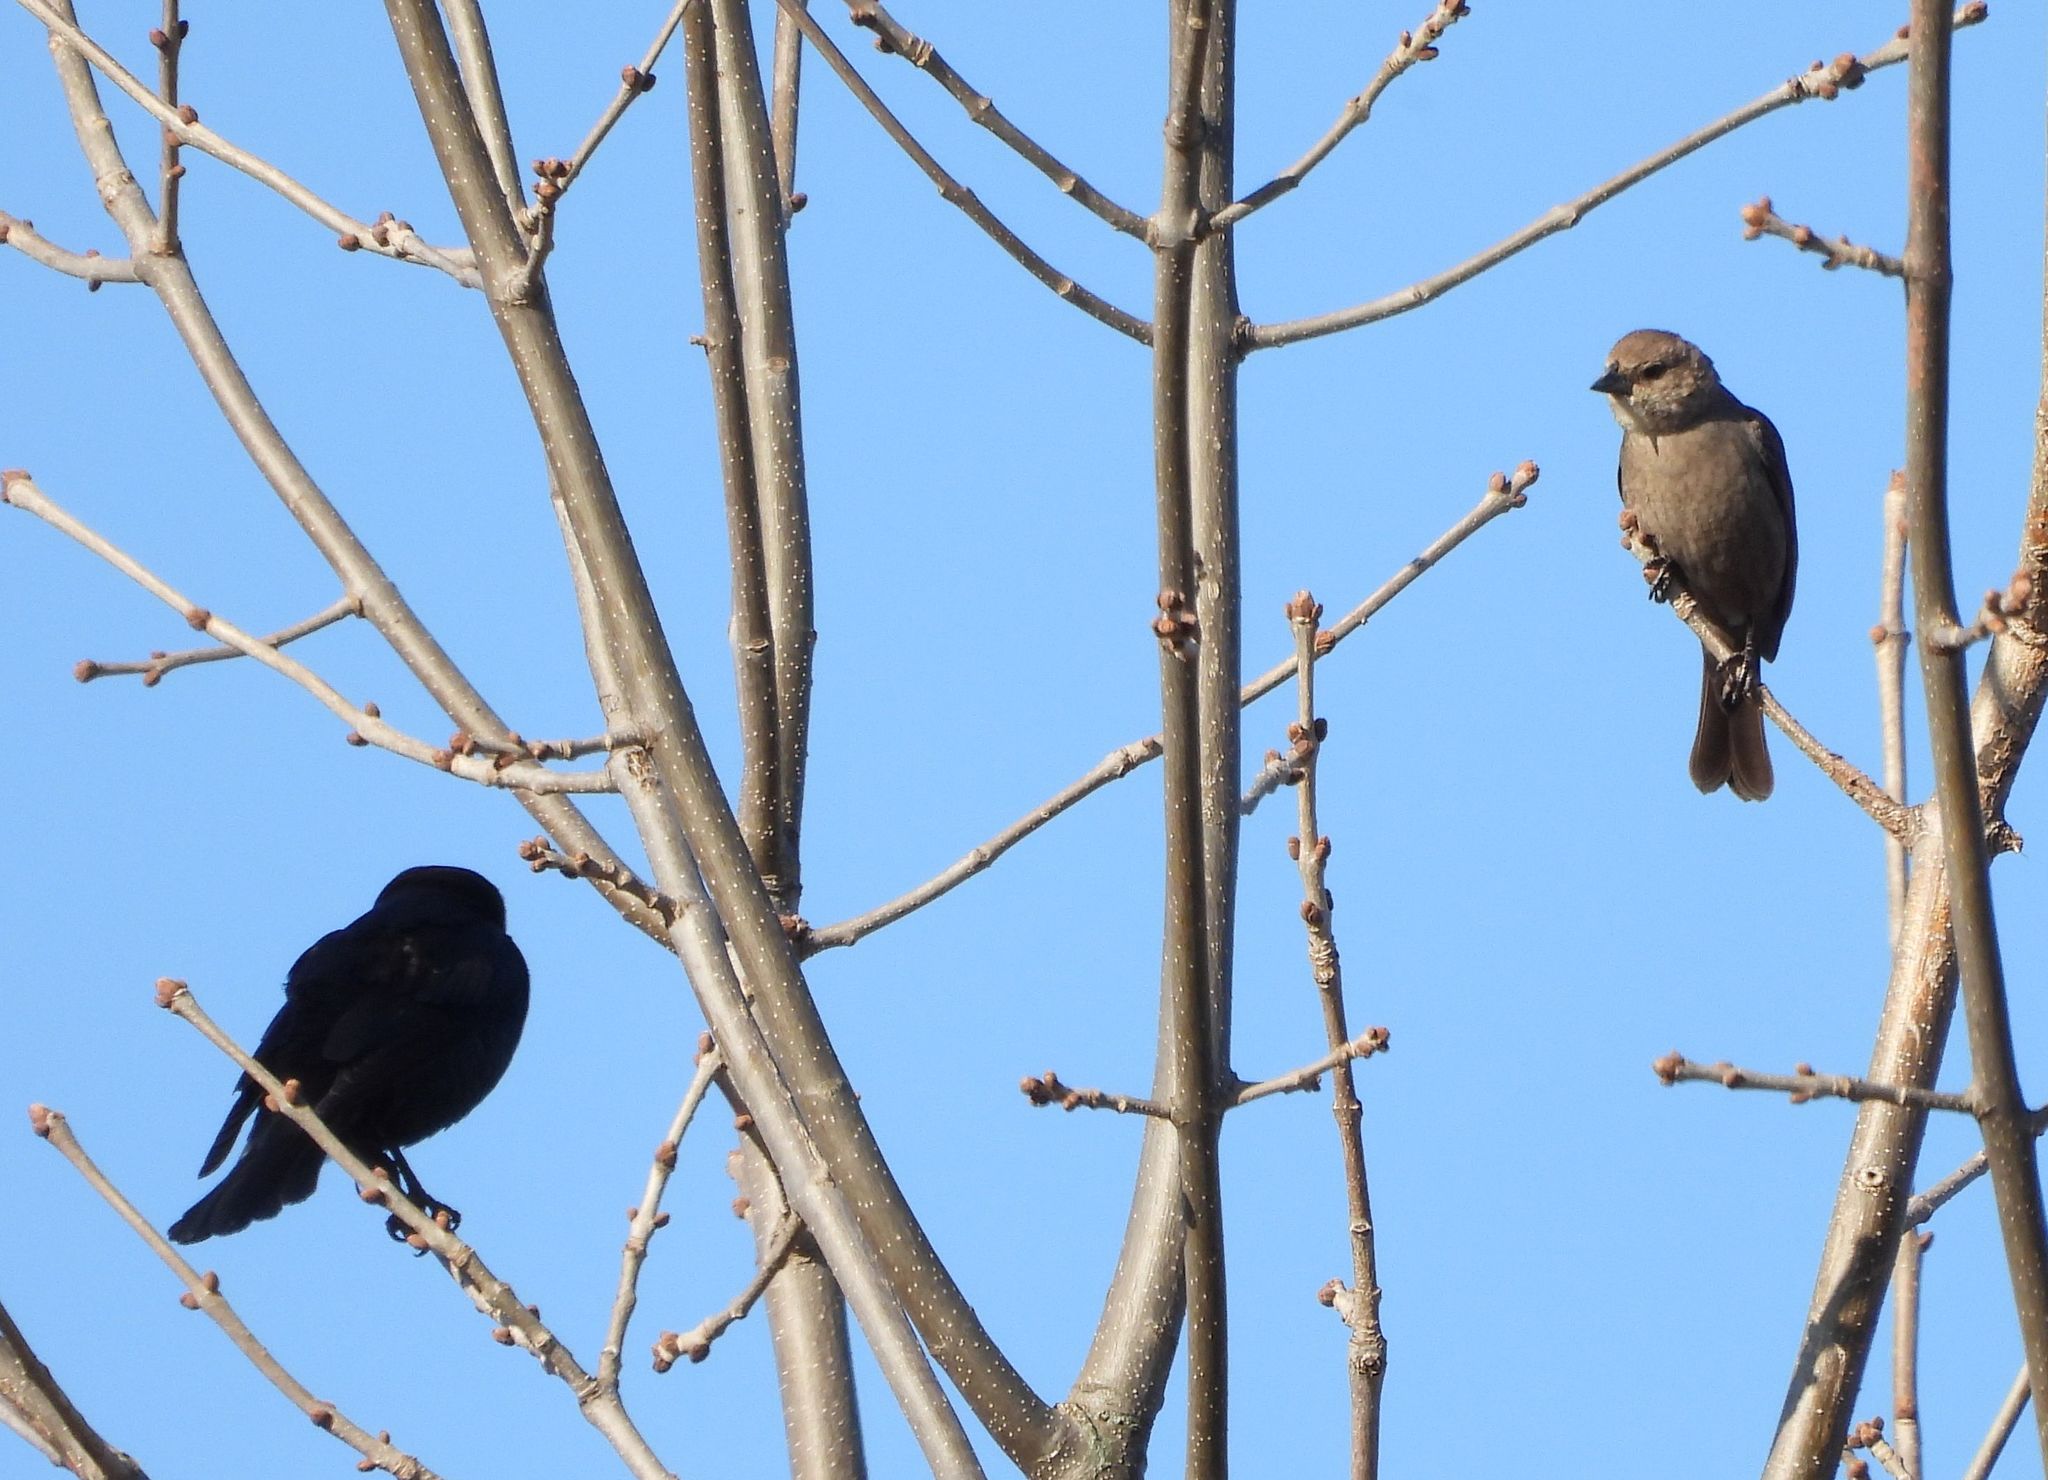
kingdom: Animalia
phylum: Chordata
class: Aves
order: Passeriformes
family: Icteridae
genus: Molothrus
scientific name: Molothrus ater
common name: Brown-headed cowbird
